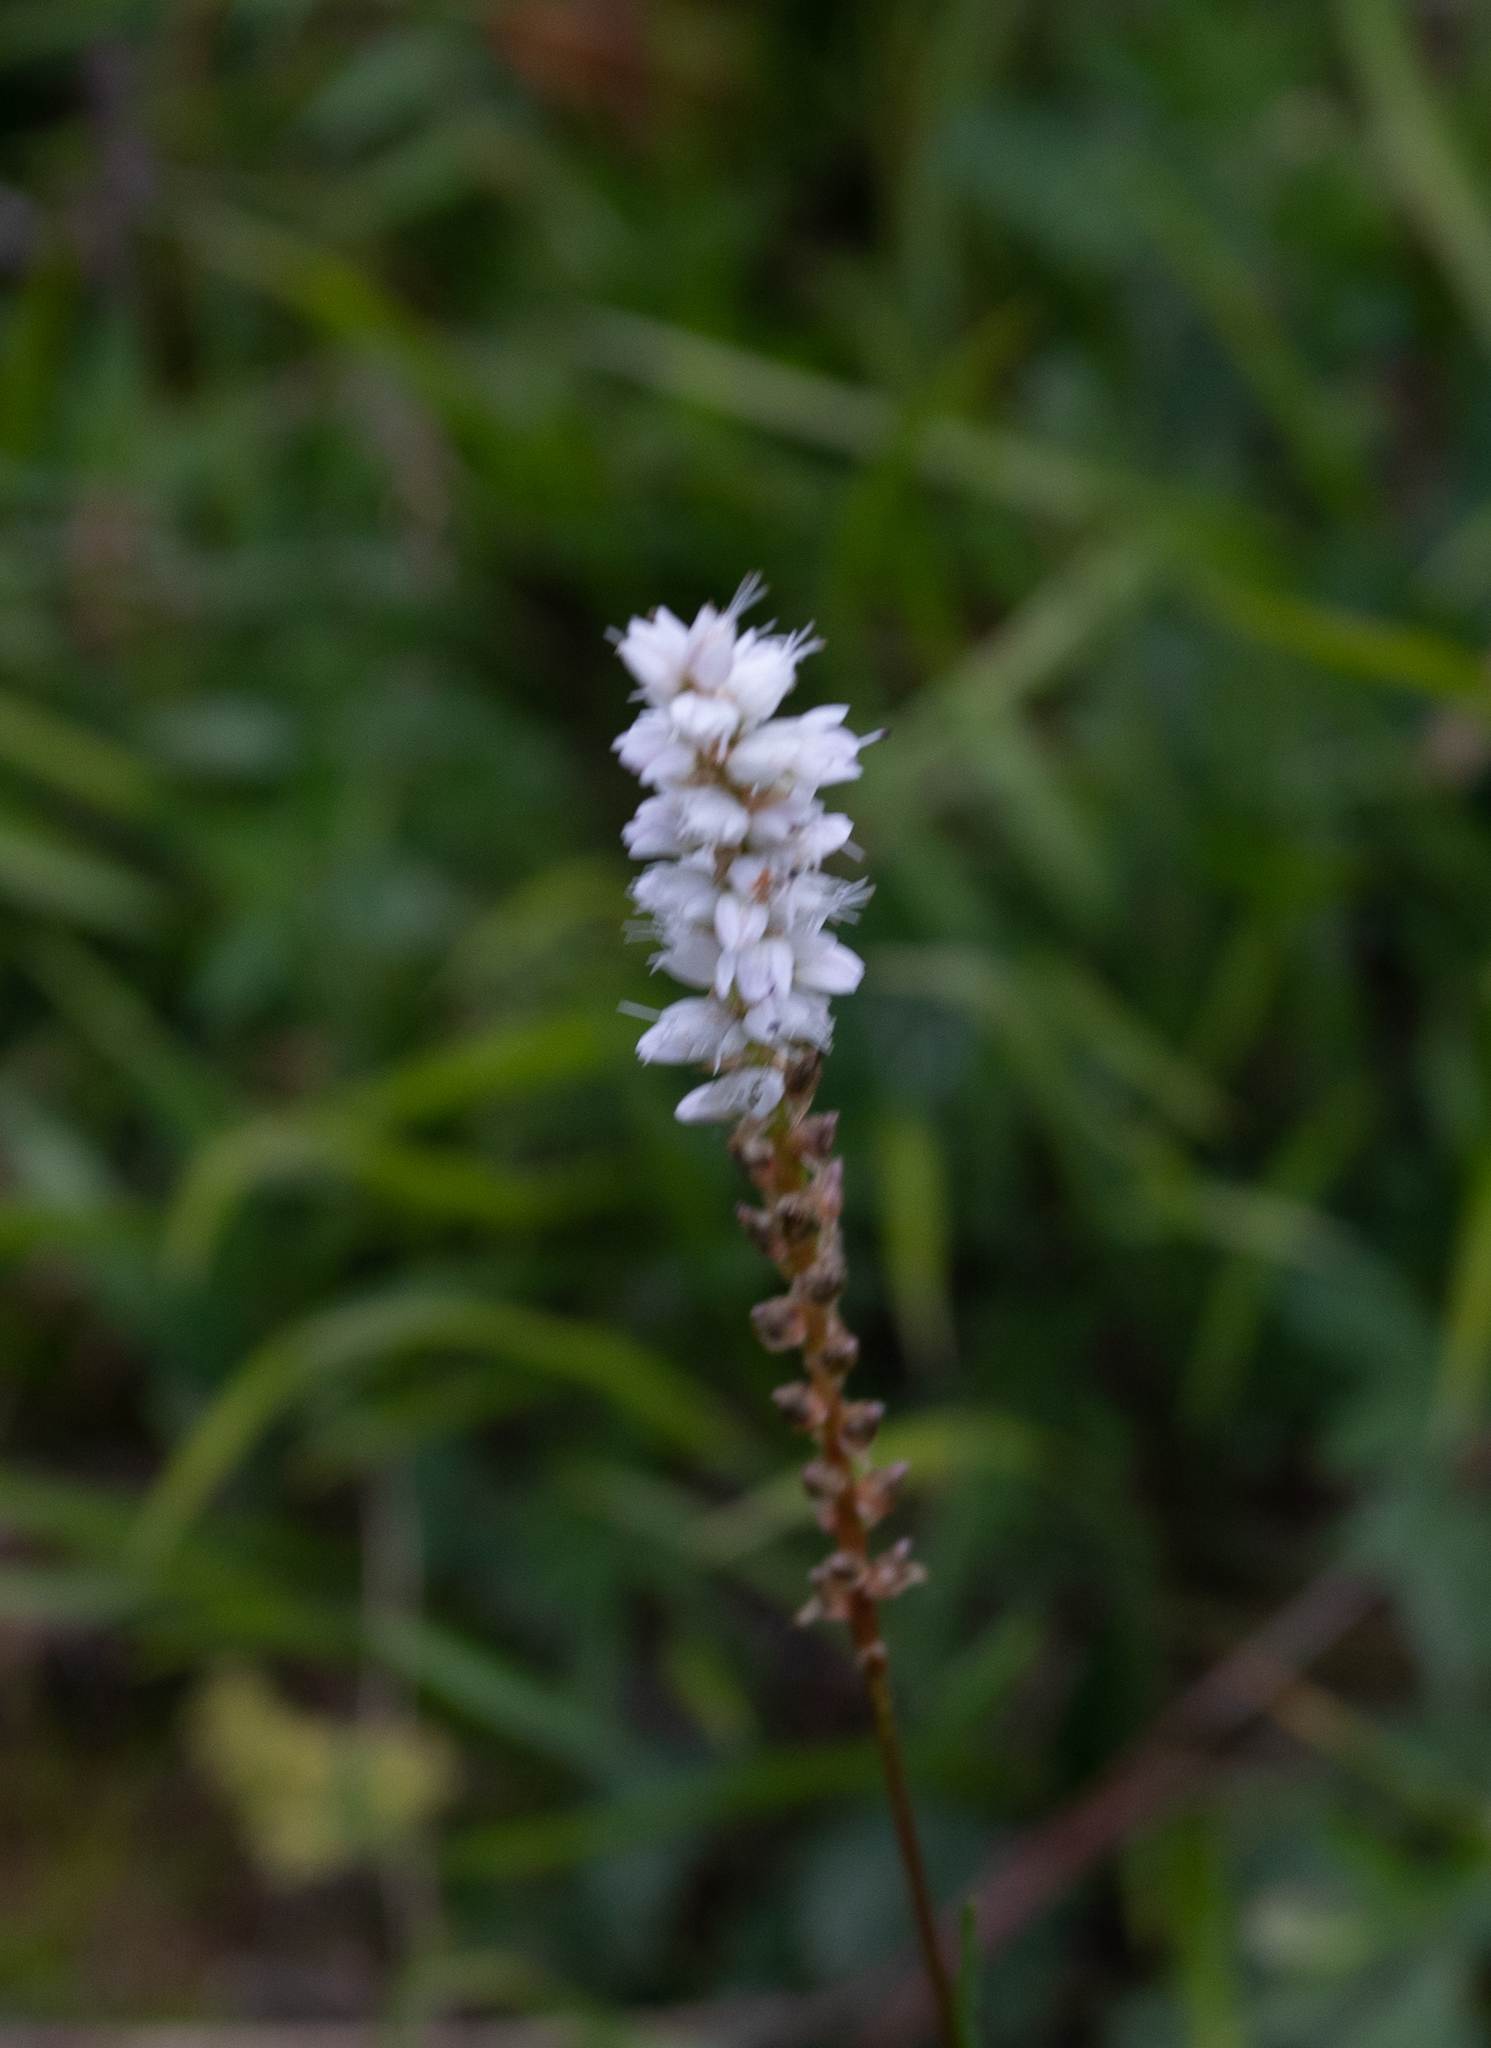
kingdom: Plantae
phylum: Tracheophyta
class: Magnoliopsida
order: Caryophyllales
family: Polygonaceae
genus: Bistorta
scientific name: Bistorta vivipara
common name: Alpine bistort
